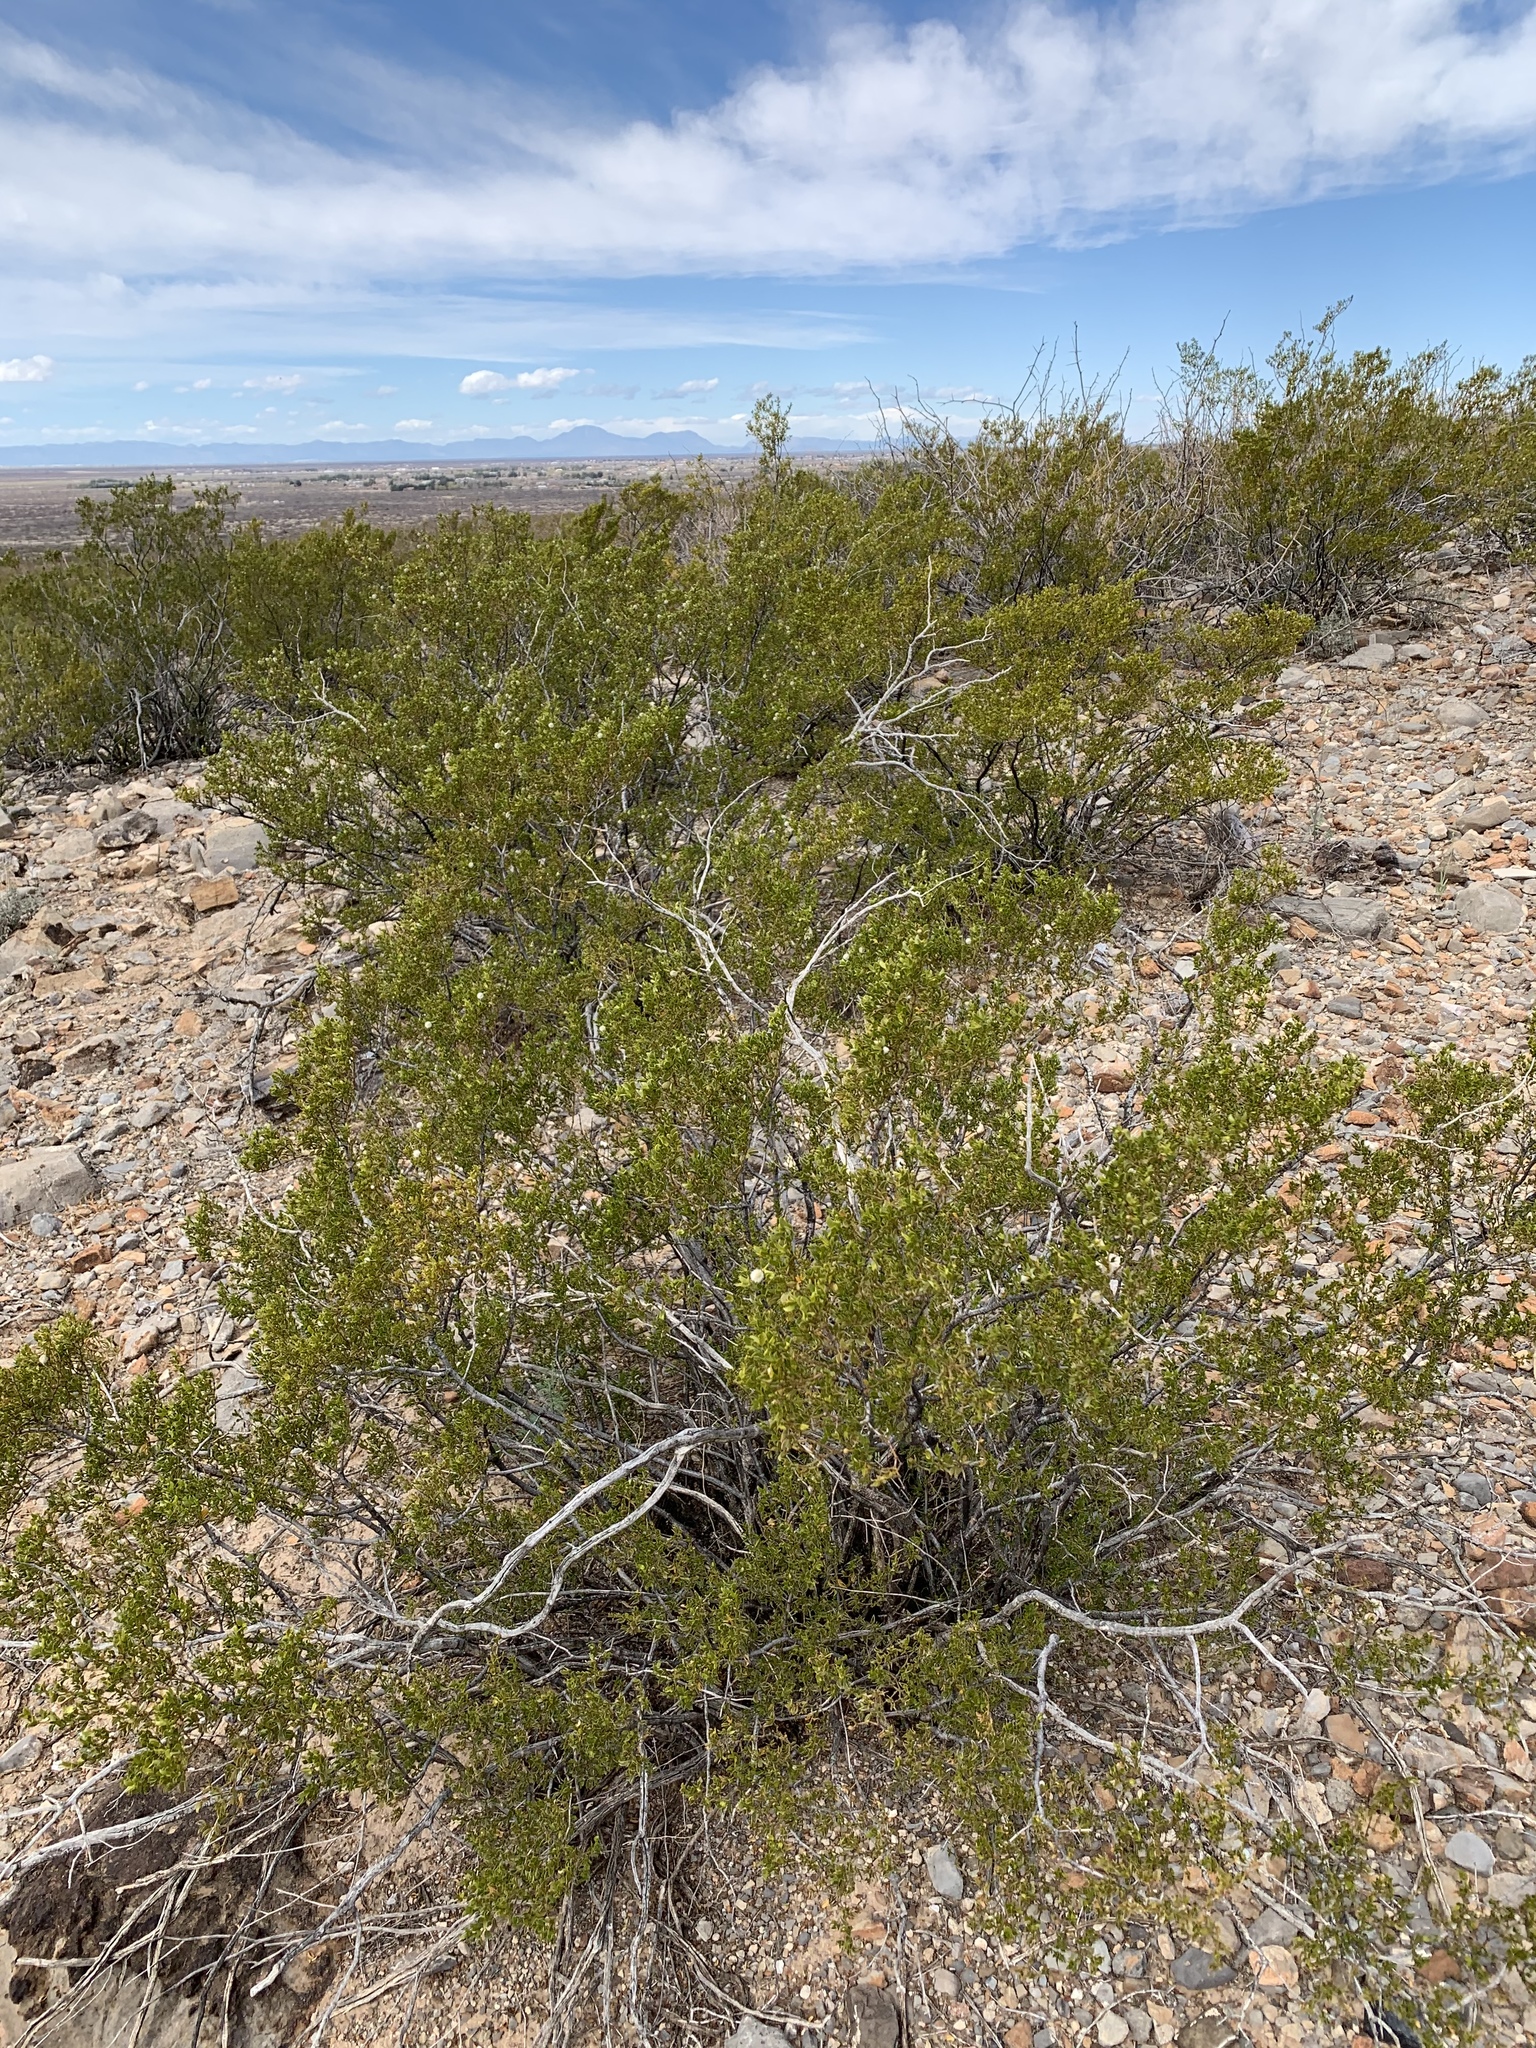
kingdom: Plantae
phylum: Tracheophyta
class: Magnoliopsida
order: Zygophyllales
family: Zygophyllaceae
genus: Larrea
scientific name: Larrea tridentata
